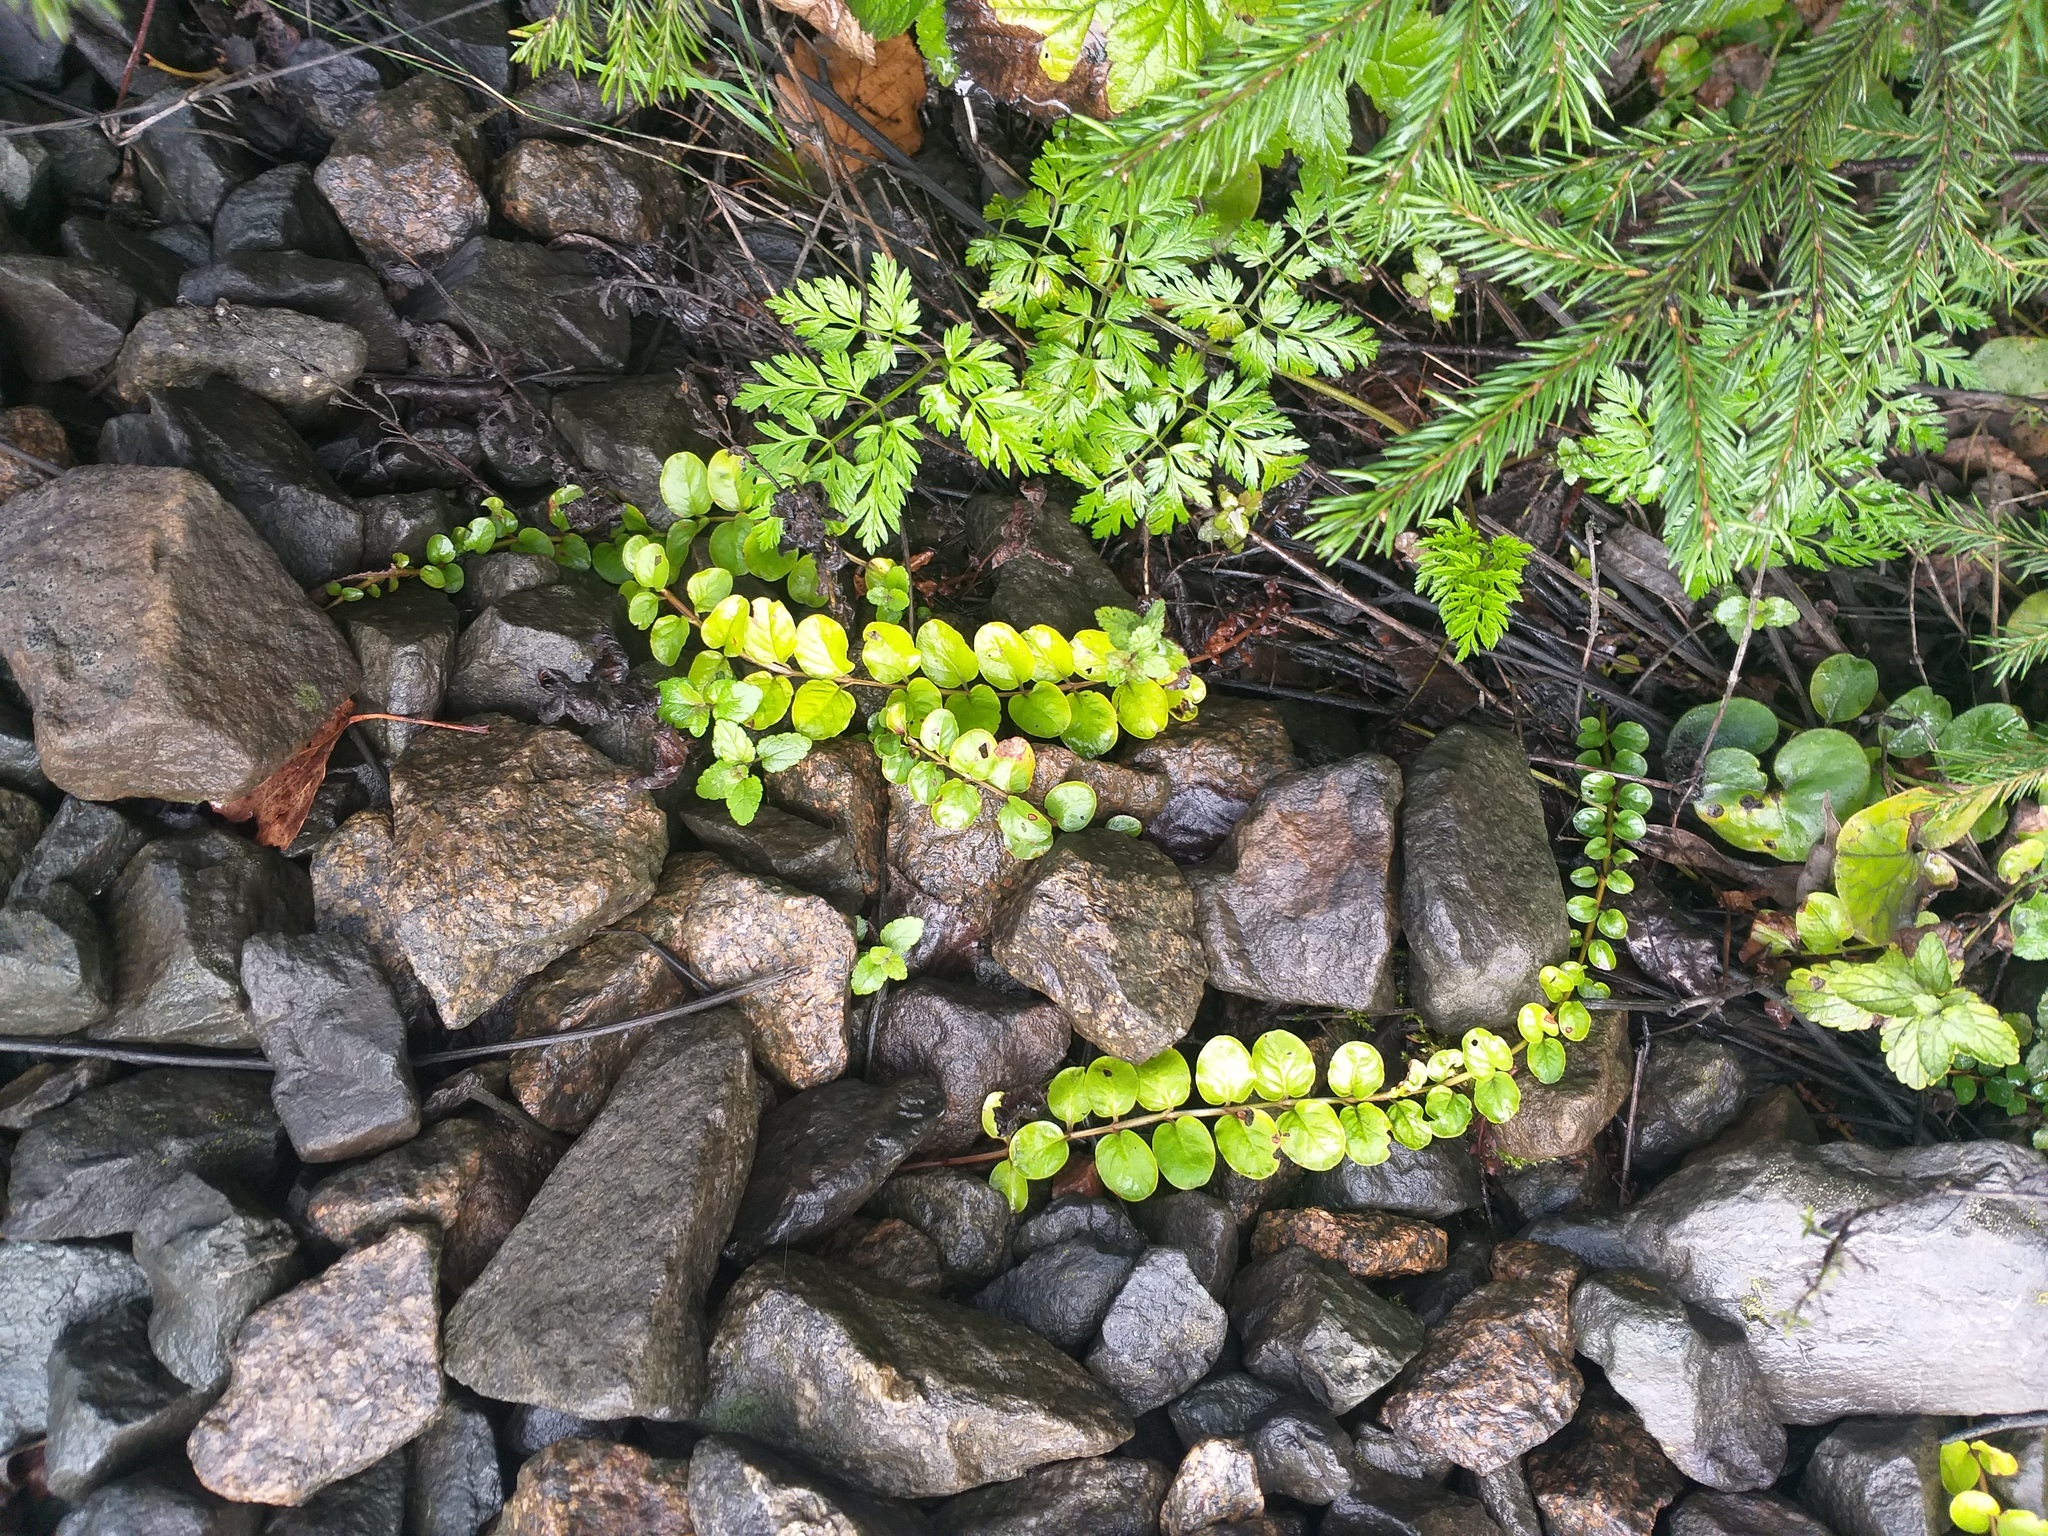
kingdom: Plantae
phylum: Tracheophyta
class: Magnoliopsida
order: Ericales
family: Primulaceae
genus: Lysimachia
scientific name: Lysimachia nummularia
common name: Moneywort
